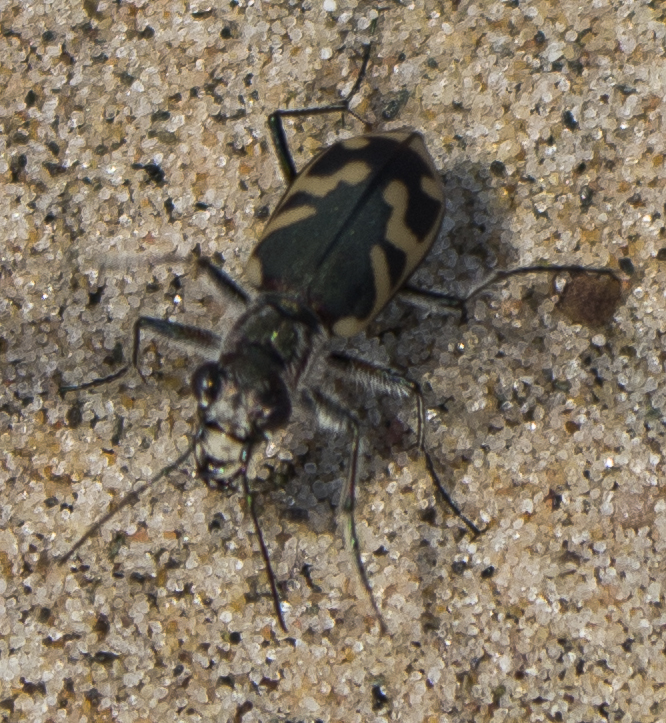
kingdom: Animalia
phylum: Arthropoda
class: Insecta
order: Coleoptera
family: Carabidae
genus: Cicindela
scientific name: Cicindela tranquebarica
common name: Oblique-lined tiger beetle
